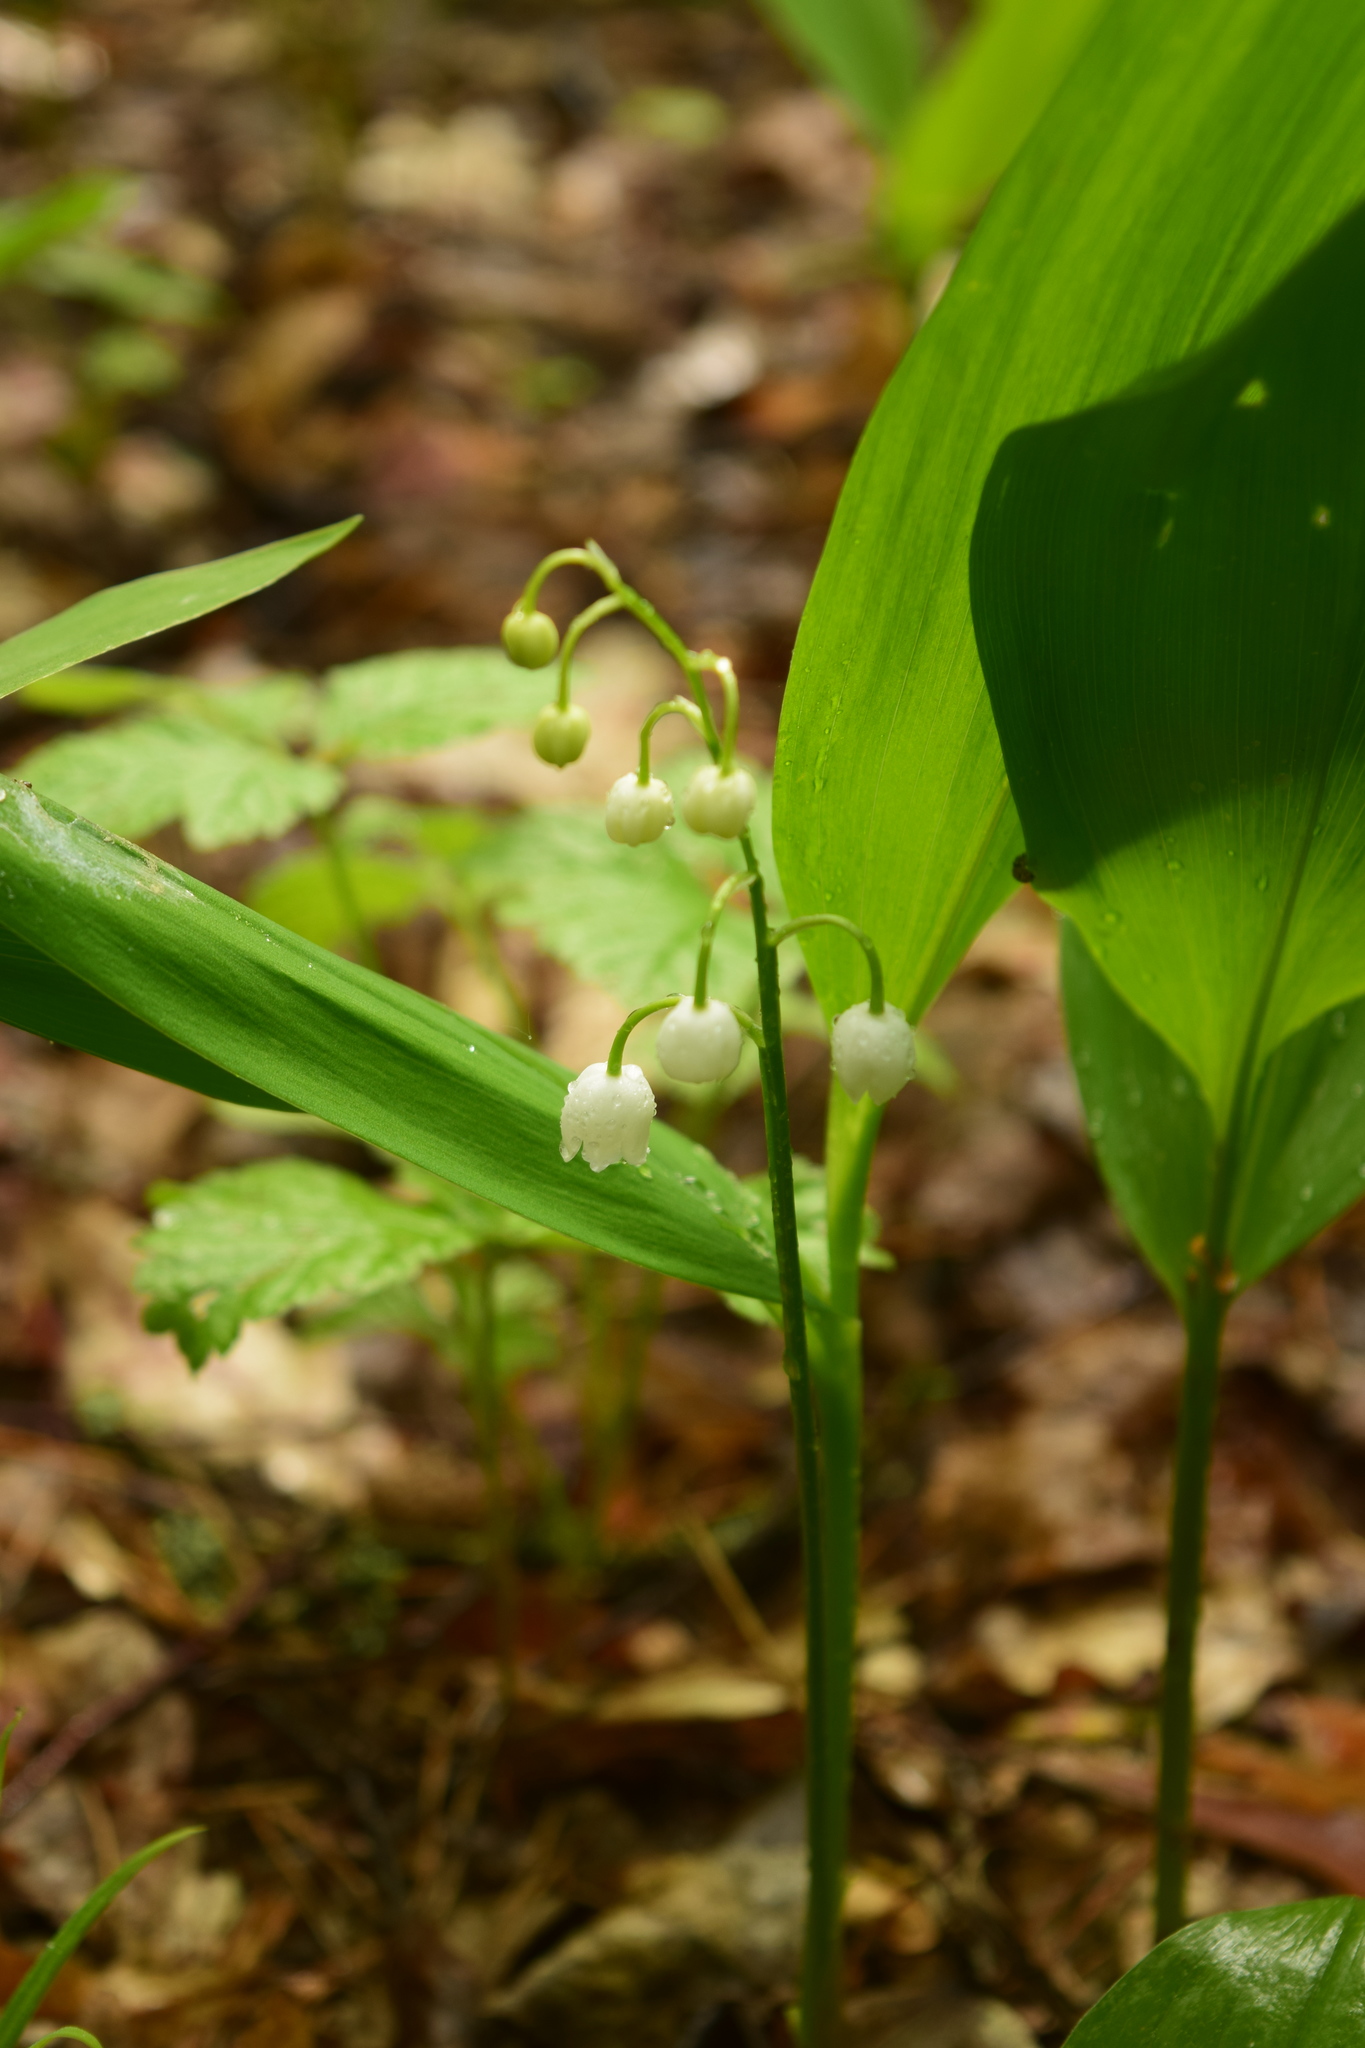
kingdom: Plantae
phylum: Tracheophyta
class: Liliopsida
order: Asparagales
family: Asparagaceae
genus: Convallaria
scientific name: Convallaria majalis
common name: Lily-of-the-valley
